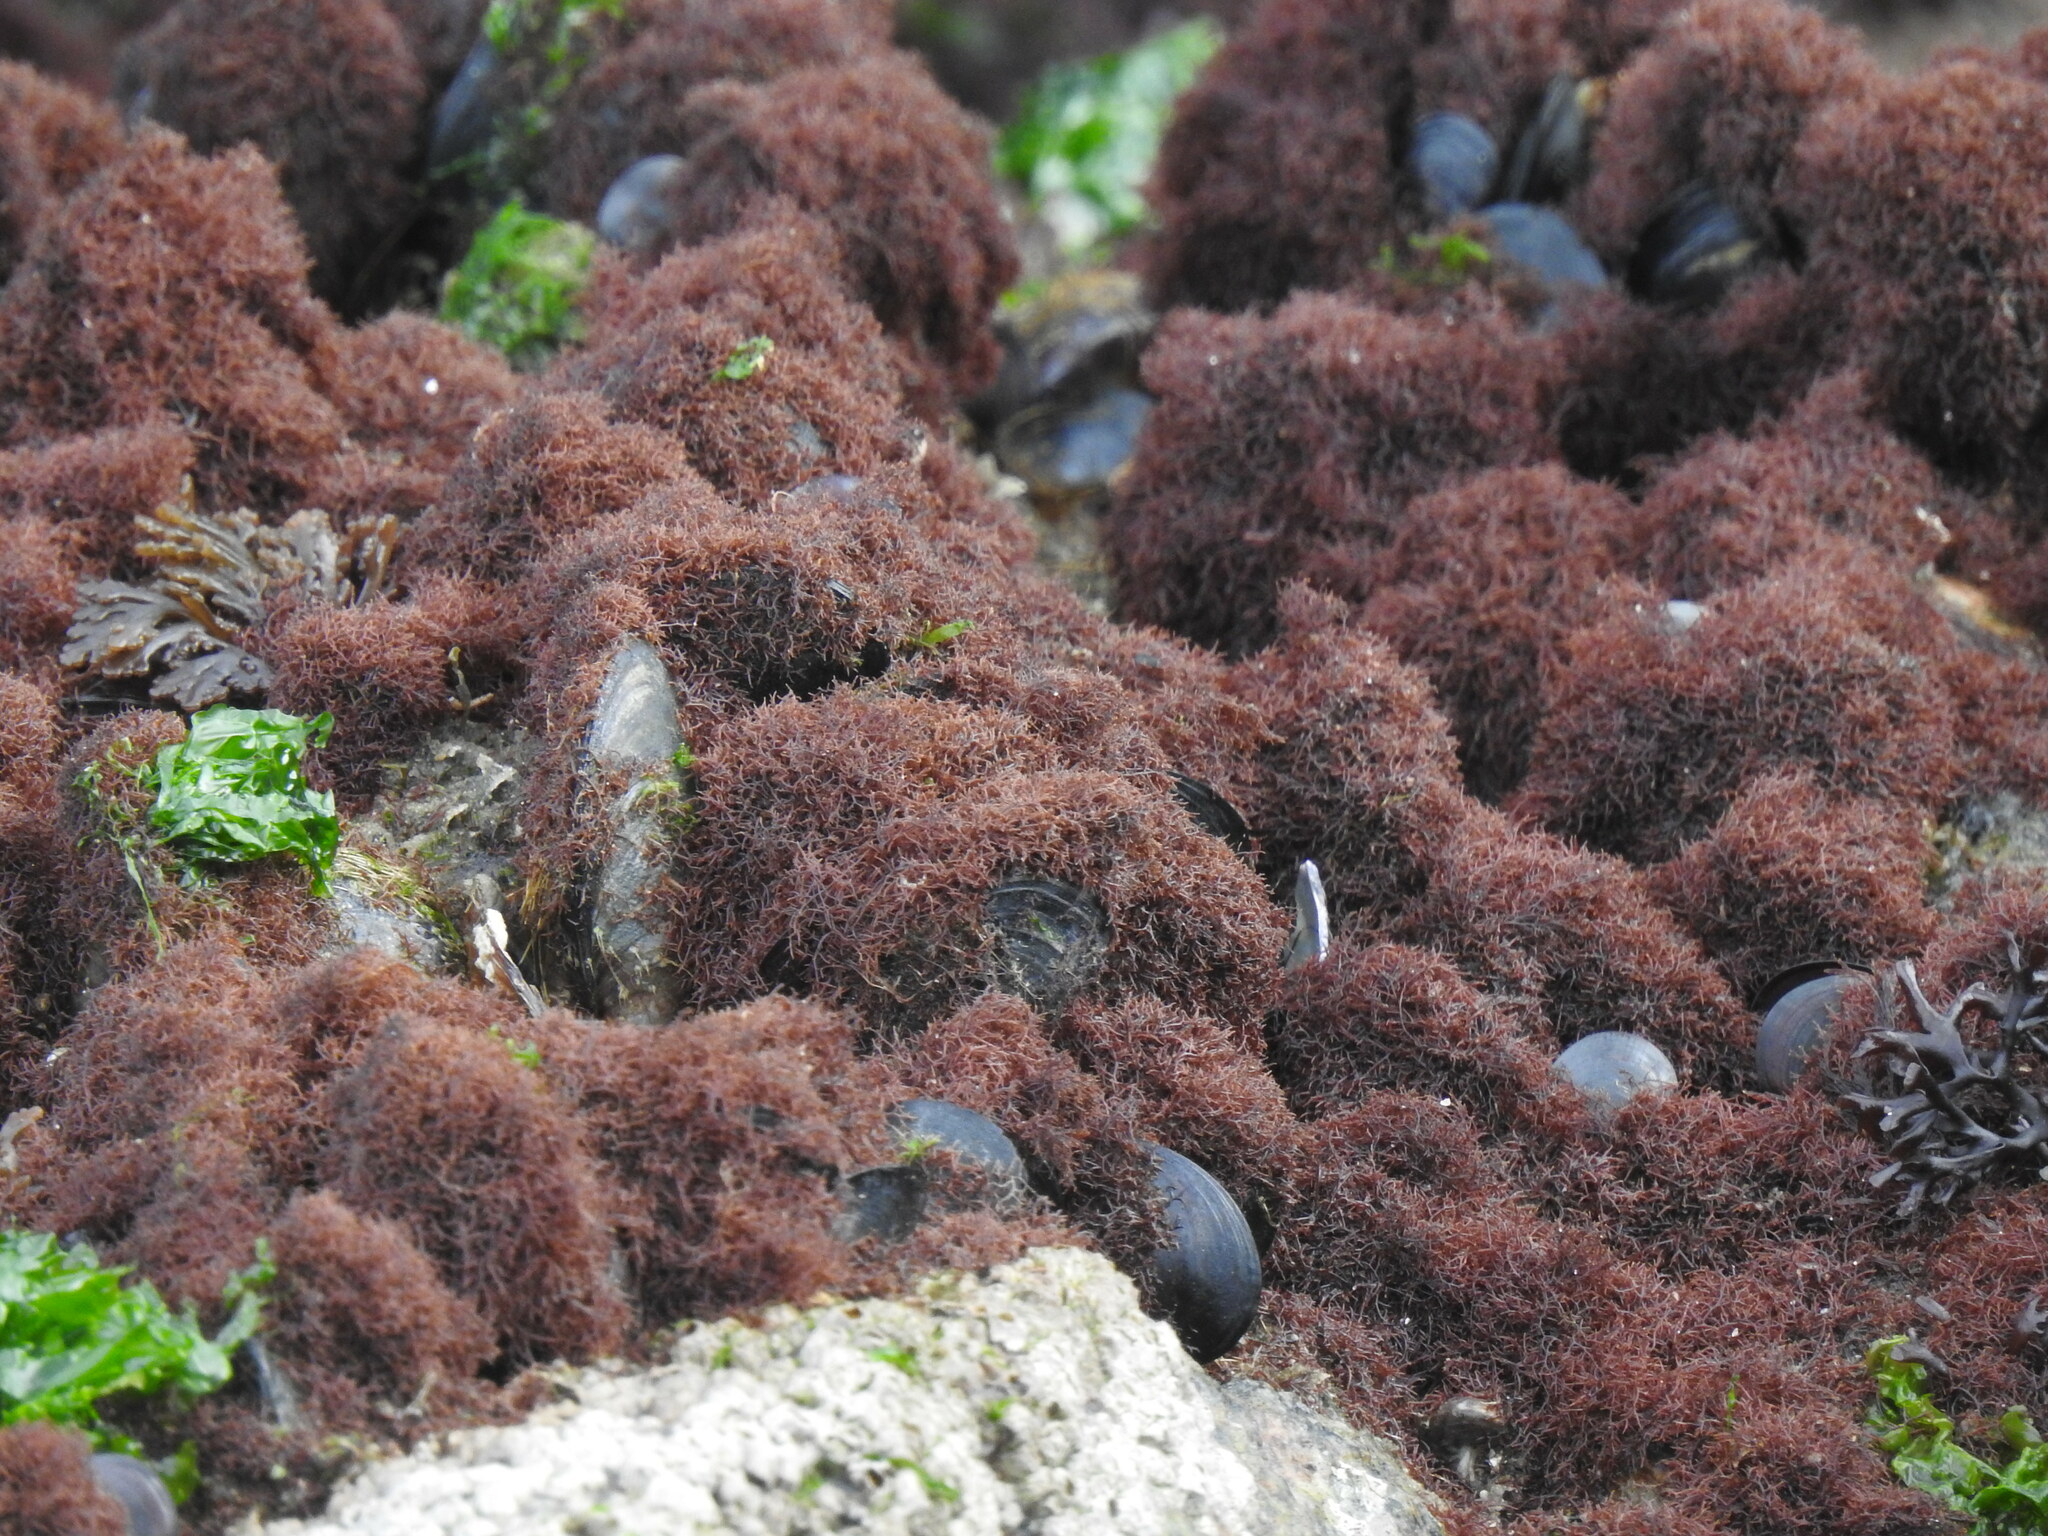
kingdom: Plantae
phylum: Rhodophyta
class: Florideophyceae
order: Gigartinales
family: Caulacanthaceae
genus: Caulacanthus
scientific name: Caulacanthus ustulatus
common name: Red algae
